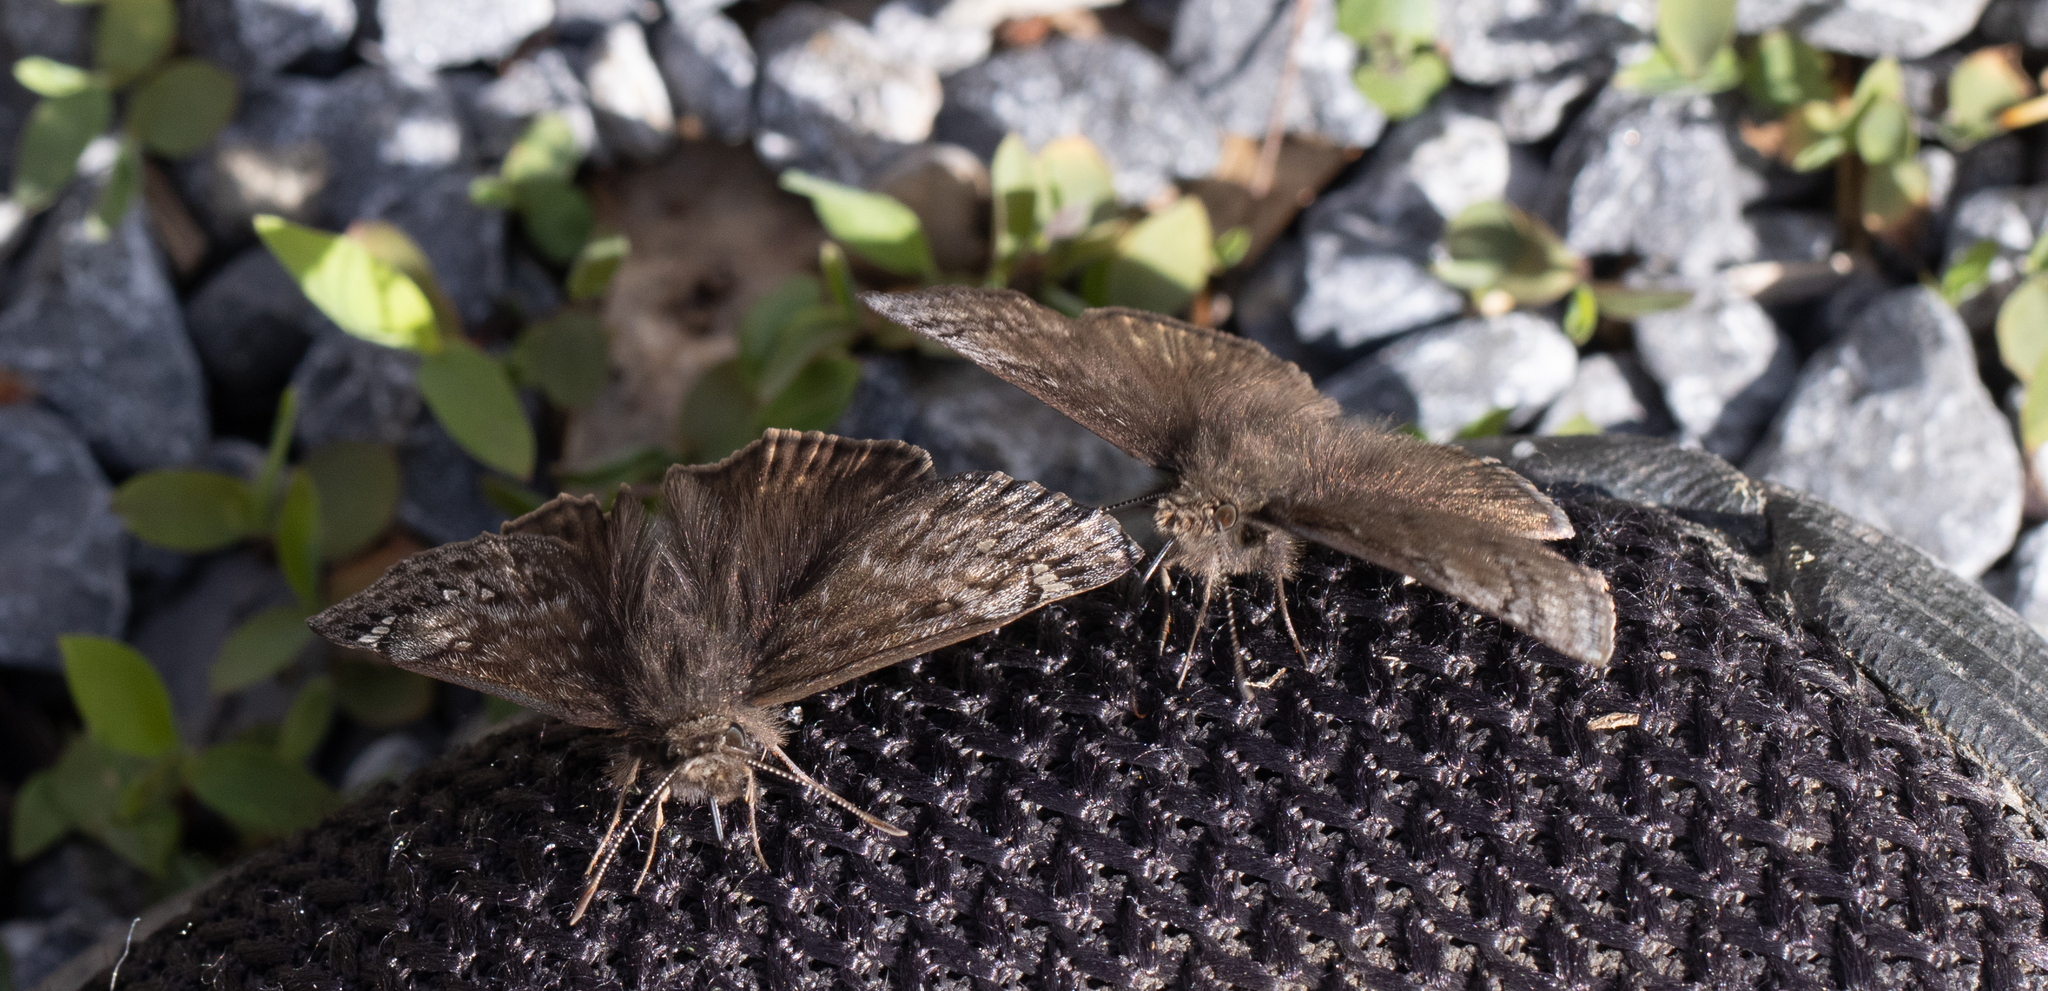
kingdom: Animalia
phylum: Arthropoda
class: Insecta
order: Lepidoptera
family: Hesperiidae
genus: Erynnis
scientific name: Erynnis brizo
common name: Sleepy duskywing
